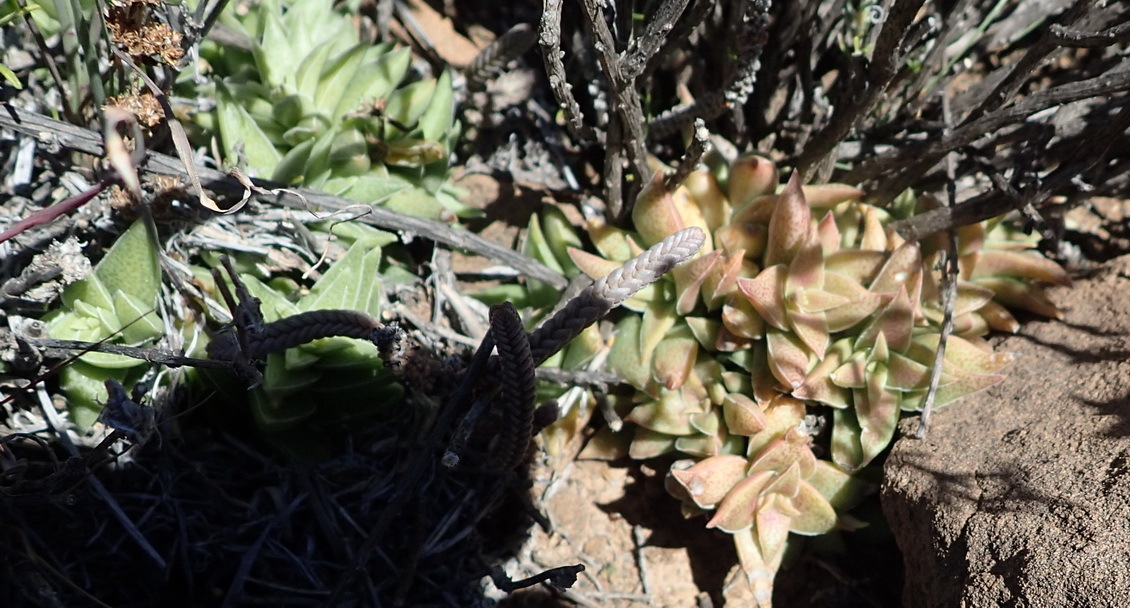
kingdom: Plantae
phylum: Tracheophyta
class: Magnoliopsida
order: Saxifragales
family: Crassulaceae
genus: Crassula
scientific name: Crassula capitella
